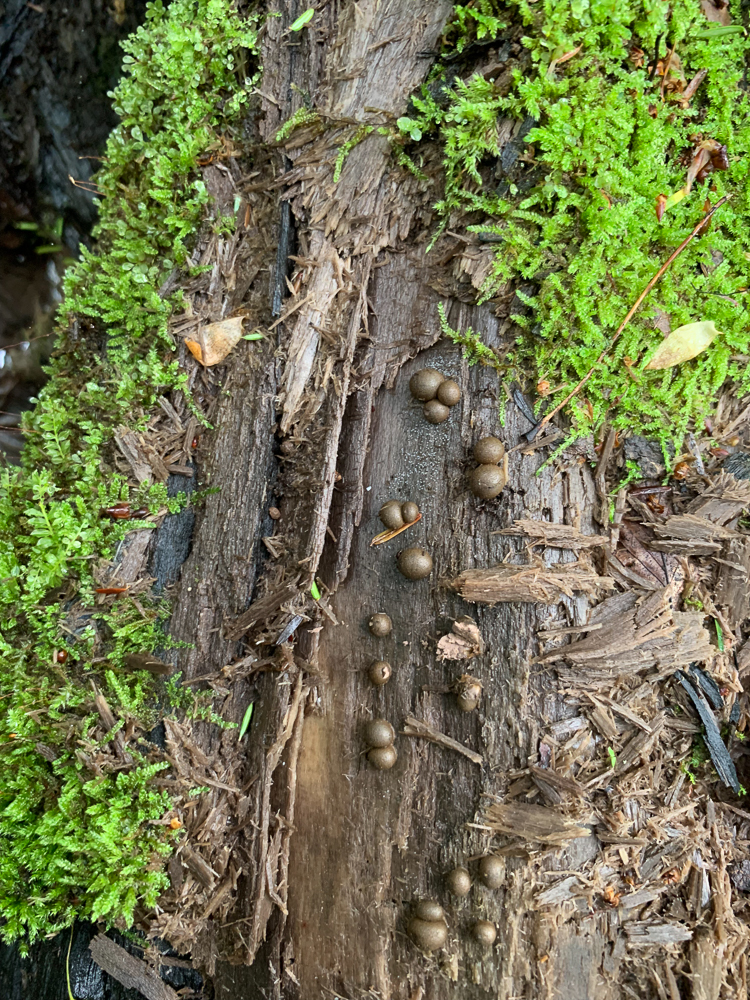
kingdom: Protozoa
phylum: Mycetozoa
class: Myxomycetes
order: Cribrariales
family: Tubiferaceae
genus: Lycogala
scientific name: Lycogala epidendrum
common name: Wolf's milk
